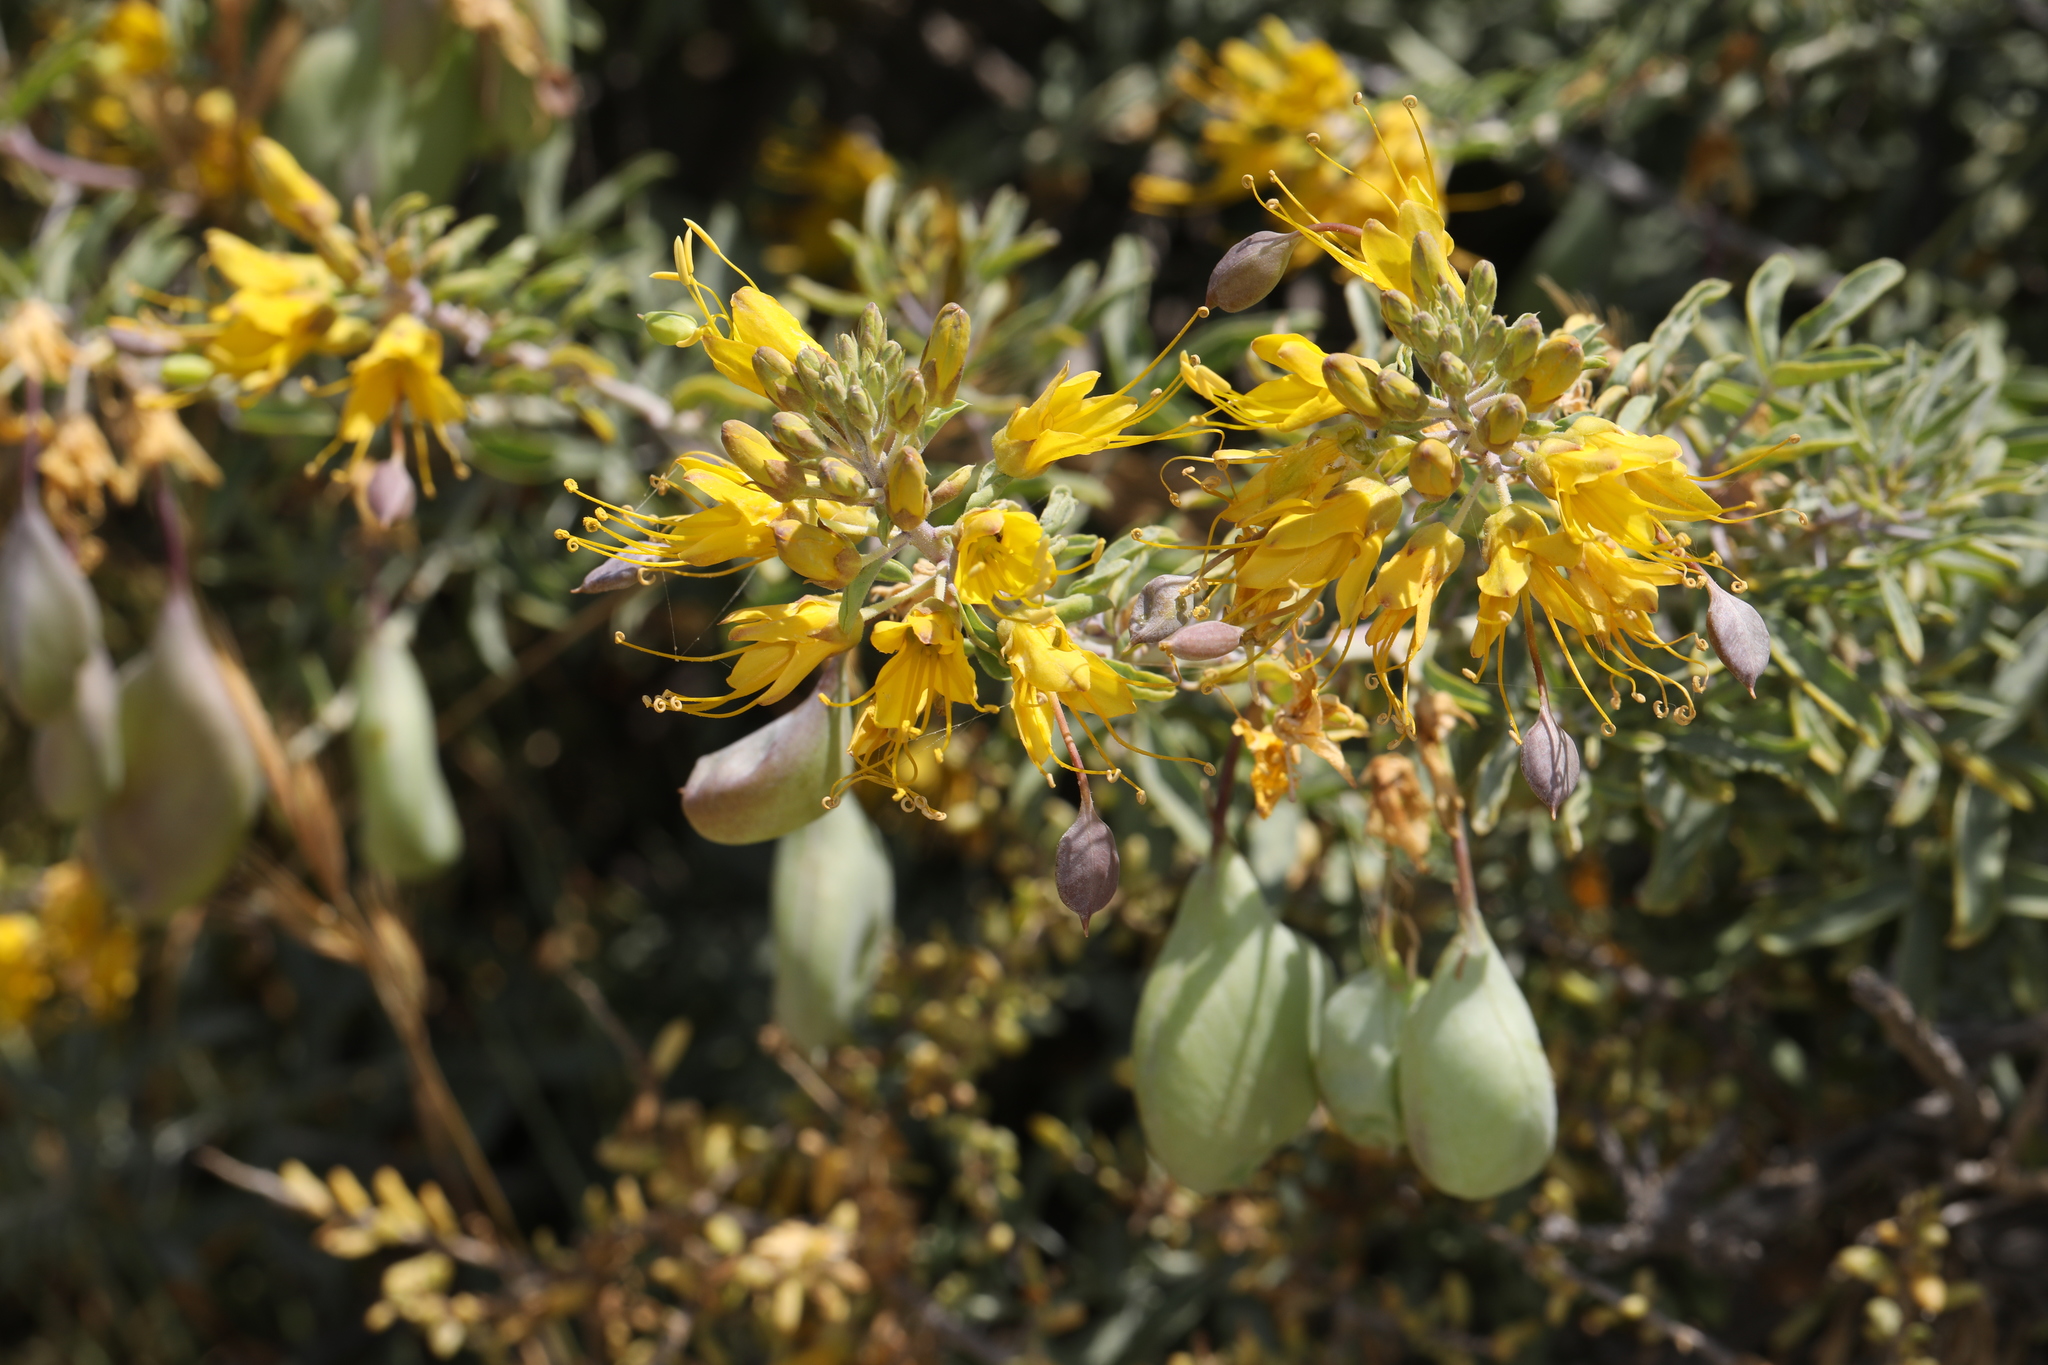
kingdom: Plantae
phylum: Tracheophyta
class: Magnoliopsida
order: Brassicales
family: Cleomaceae
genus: Cleomella
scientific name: Cleomella arborea
